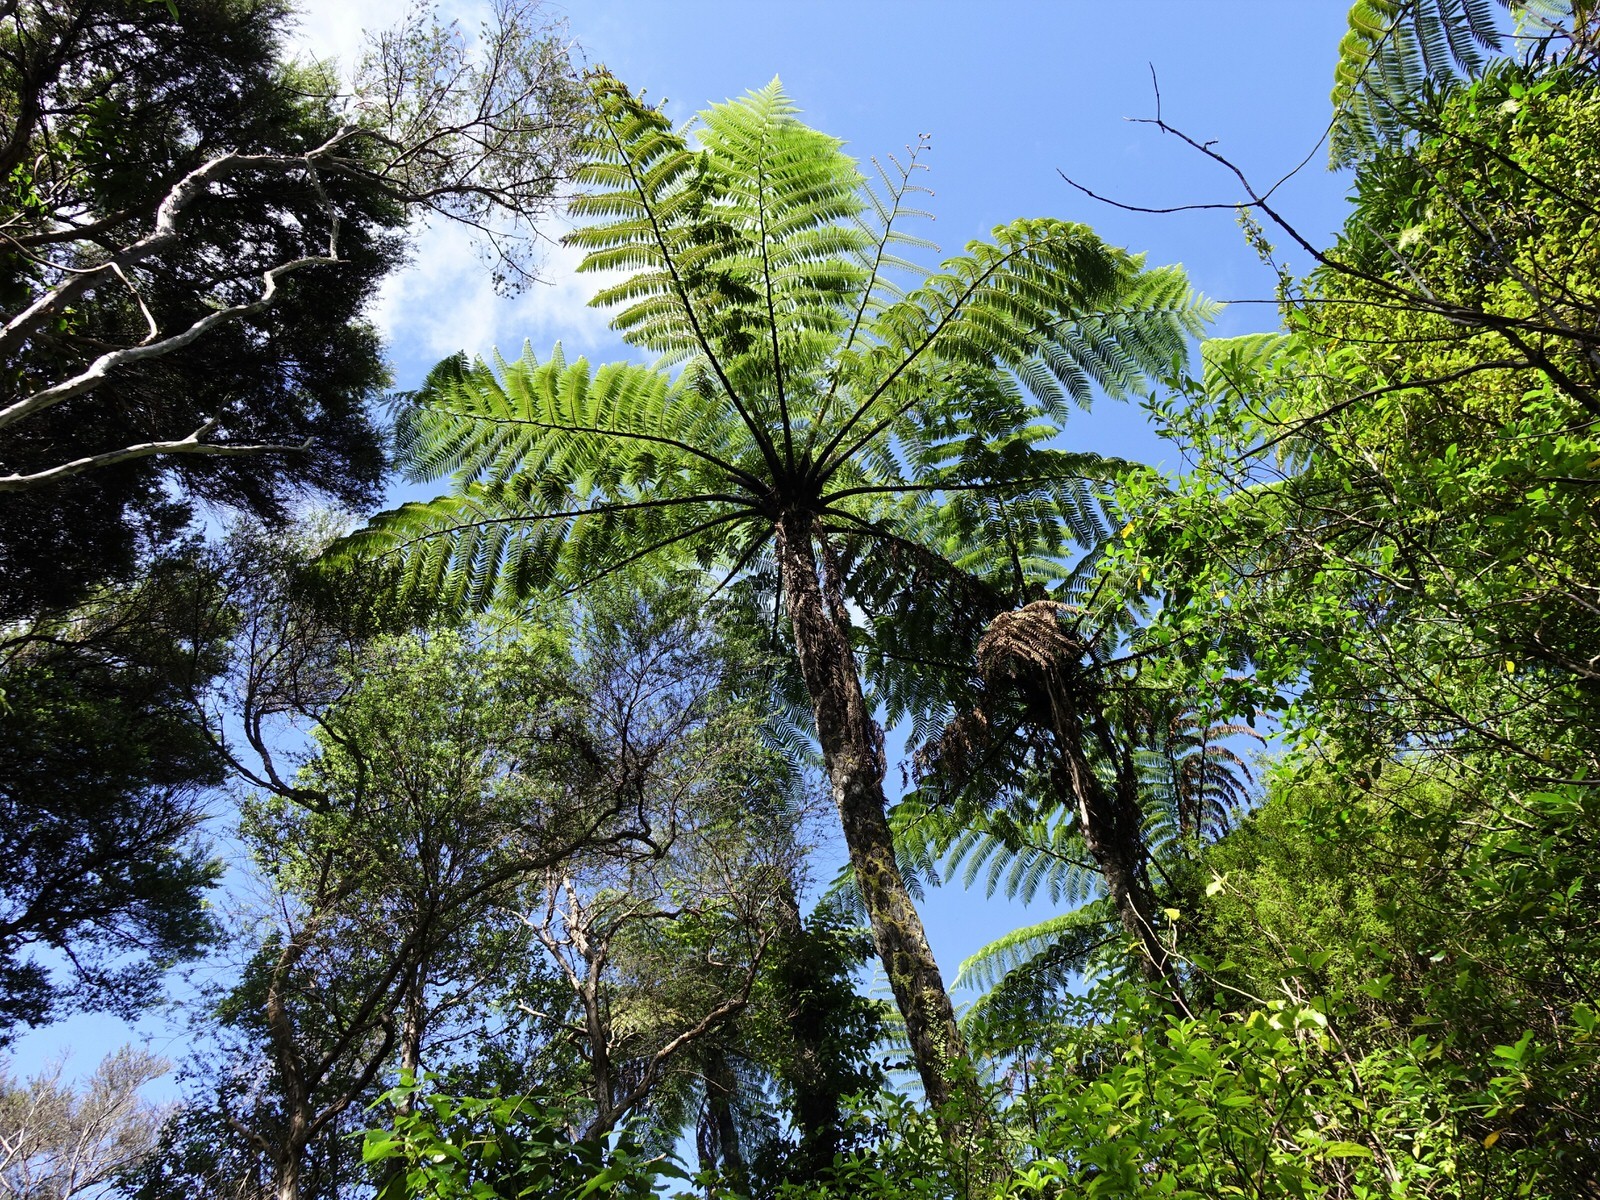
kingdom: Plantae
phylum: Tracheophyta
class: Polypodiopsida
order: Cyatheales
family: Cyatheaceae
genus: Sphaeropteris
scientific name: Sphaeropteris medullaris
